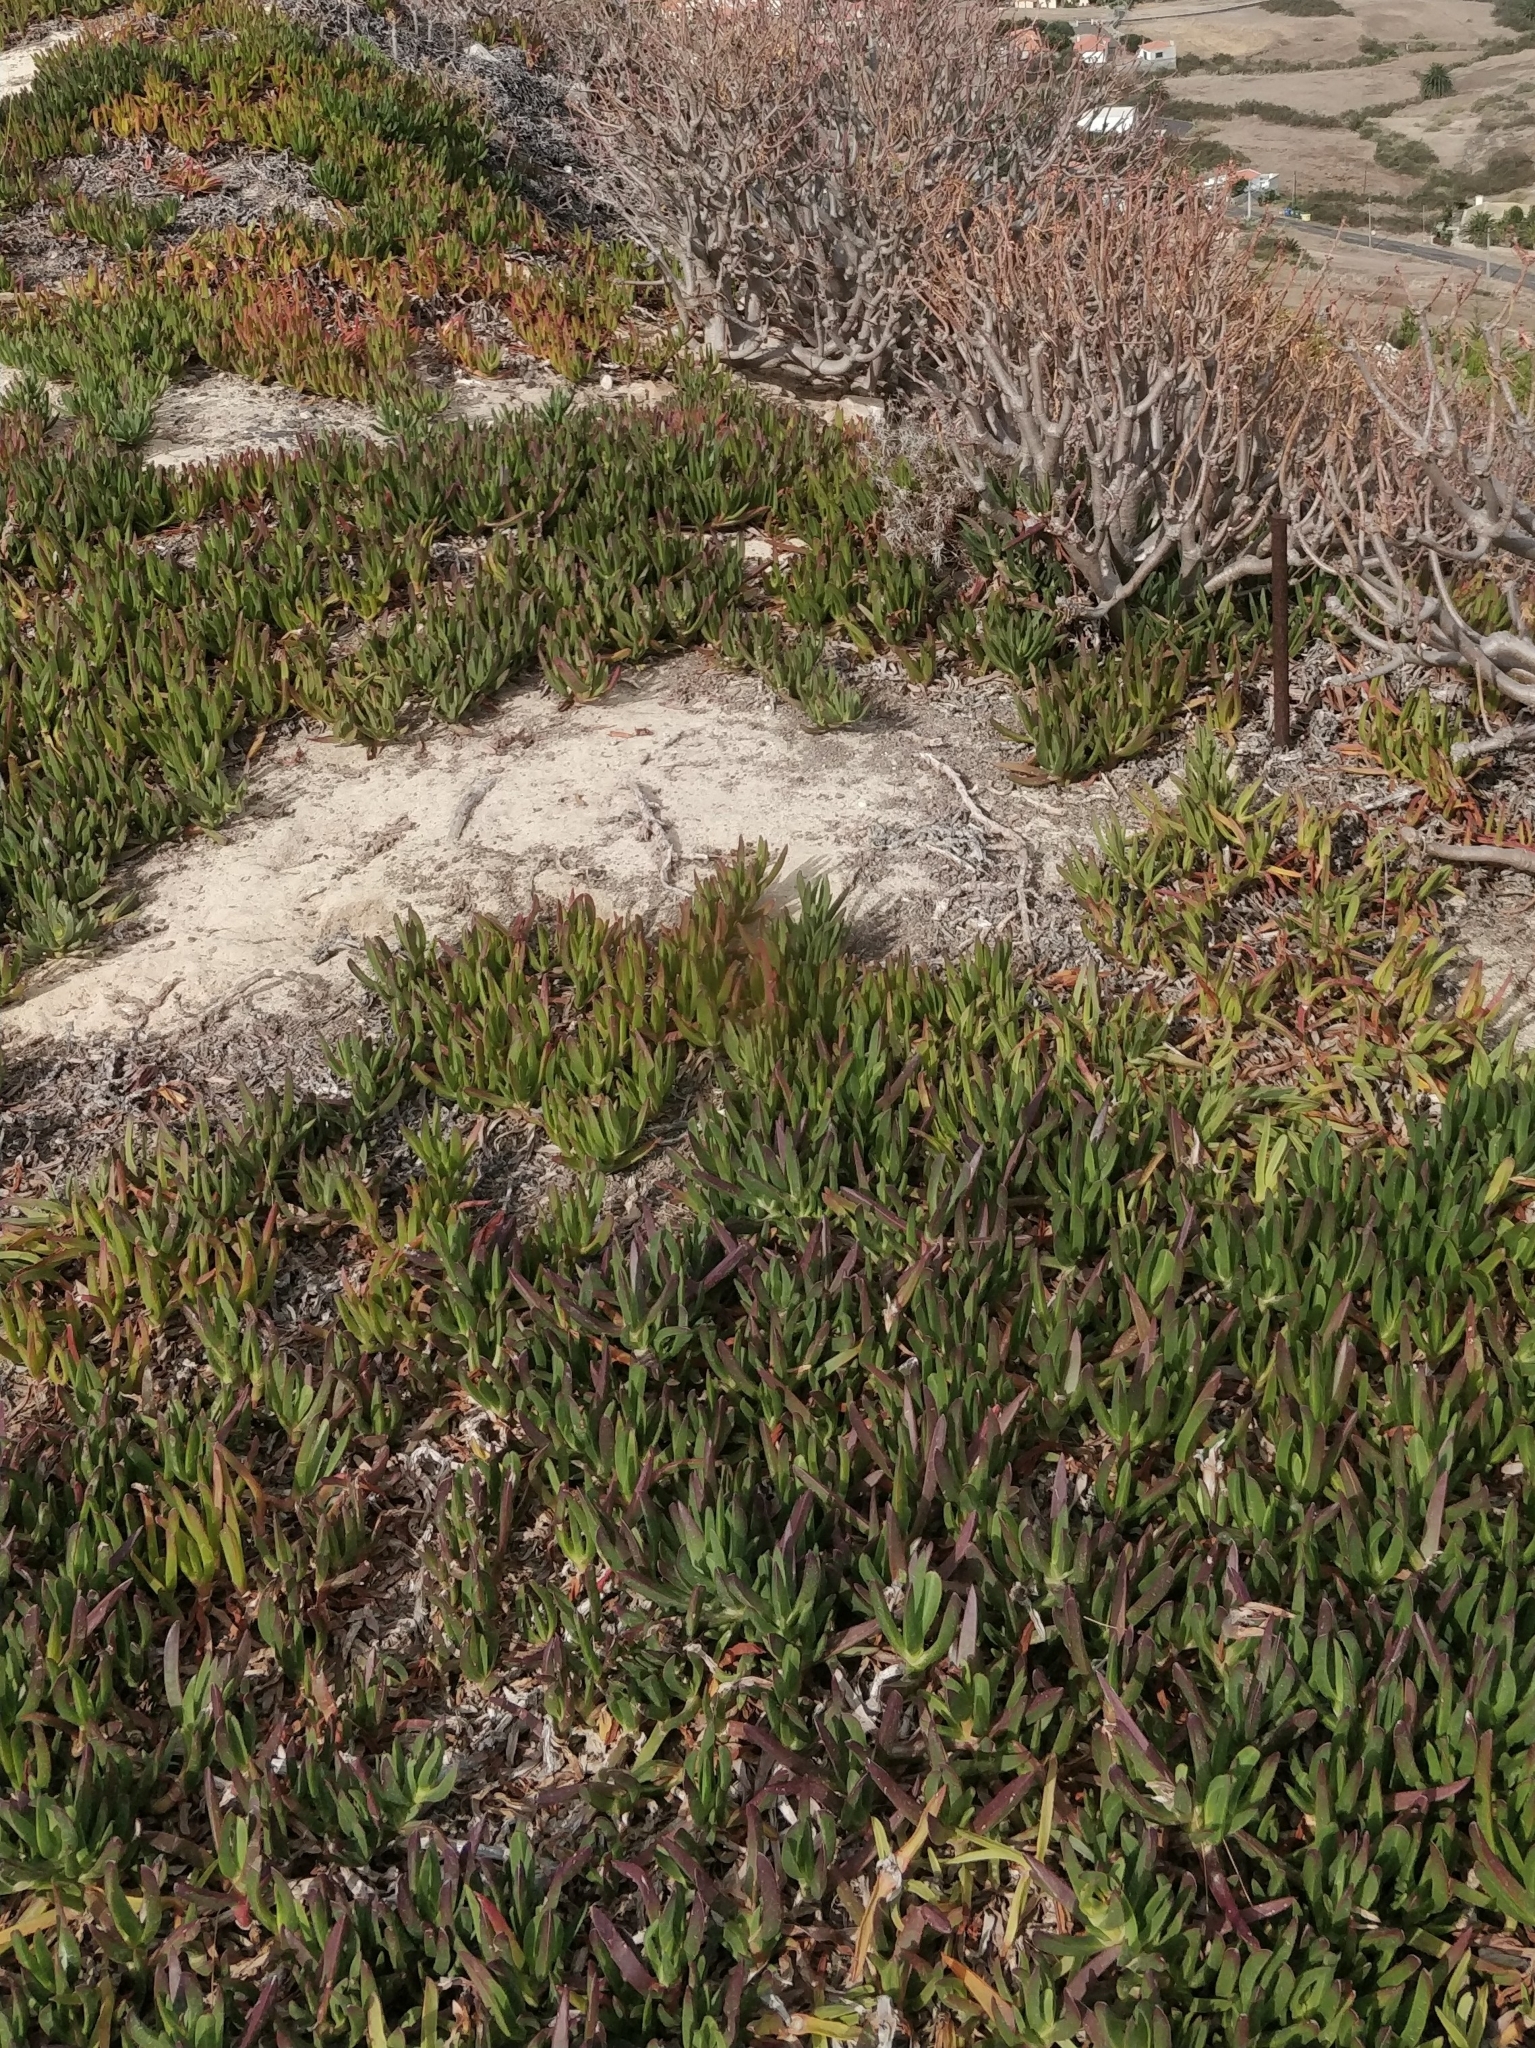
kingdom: Plantae
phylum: Tracheophyta
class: Magnoliopsida
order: Caryophyllales
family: Aizoaceae
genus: Carpobrotus
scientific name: Carpobrotus edulis
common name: Hottentot-fig
